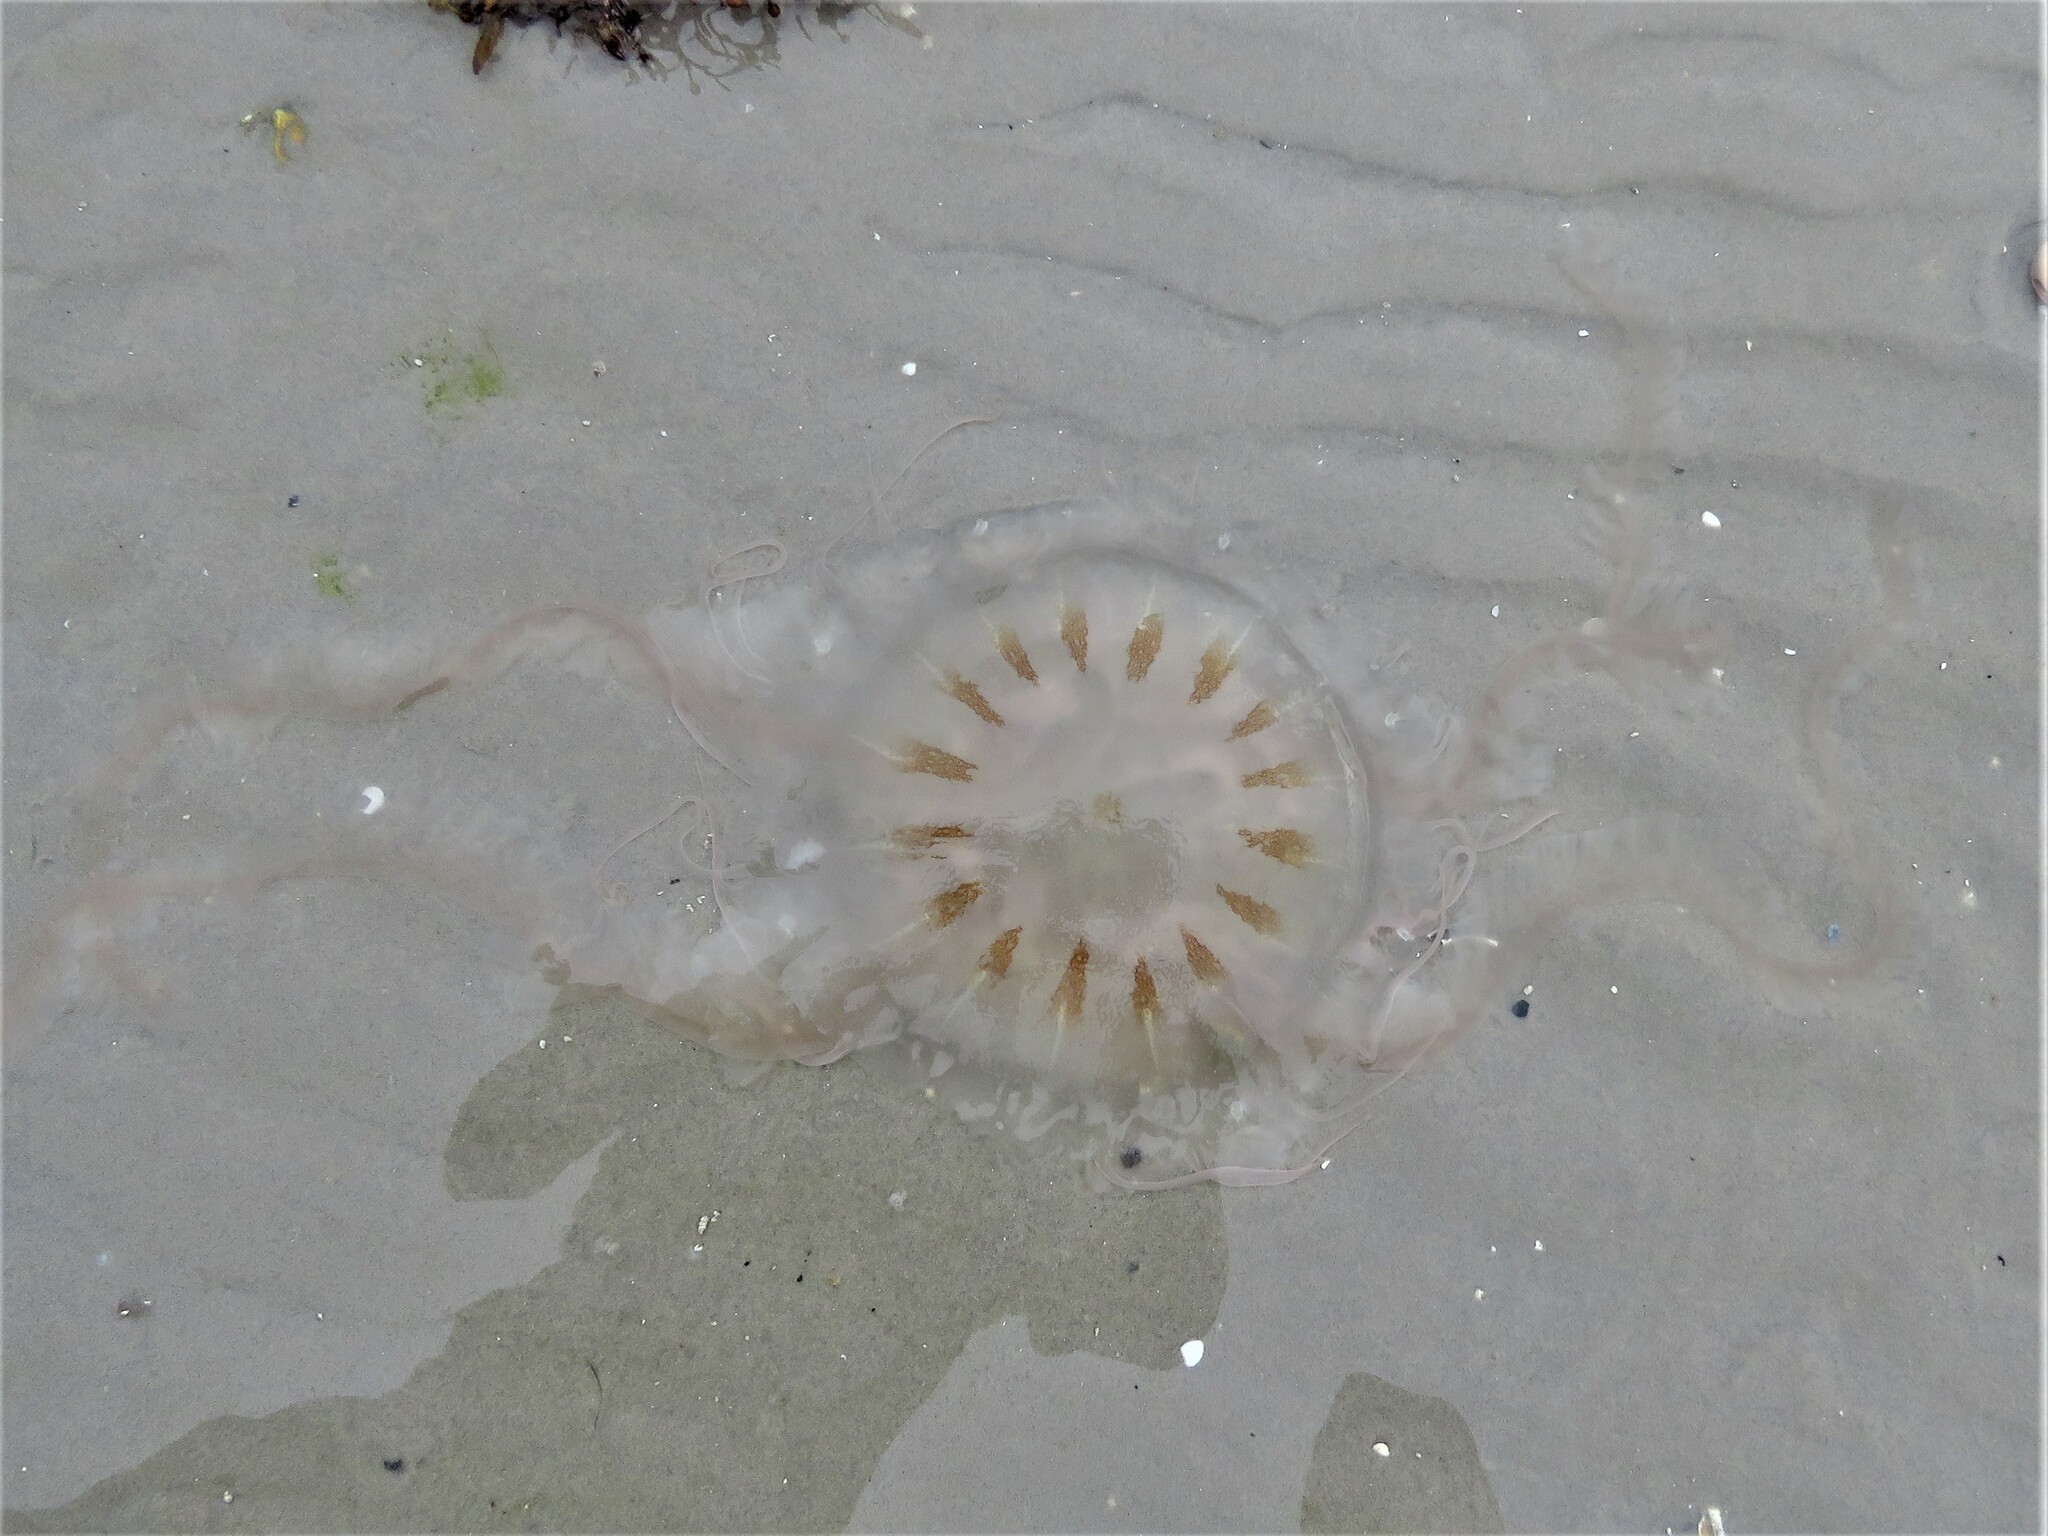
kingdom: Animalia
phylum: Cnidaria
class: Scyphozoa
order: Semaeostomeae
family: Pelagiidae
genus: Chrysaora
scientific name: Chrysaora chesapeakei
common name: Bay nettle
